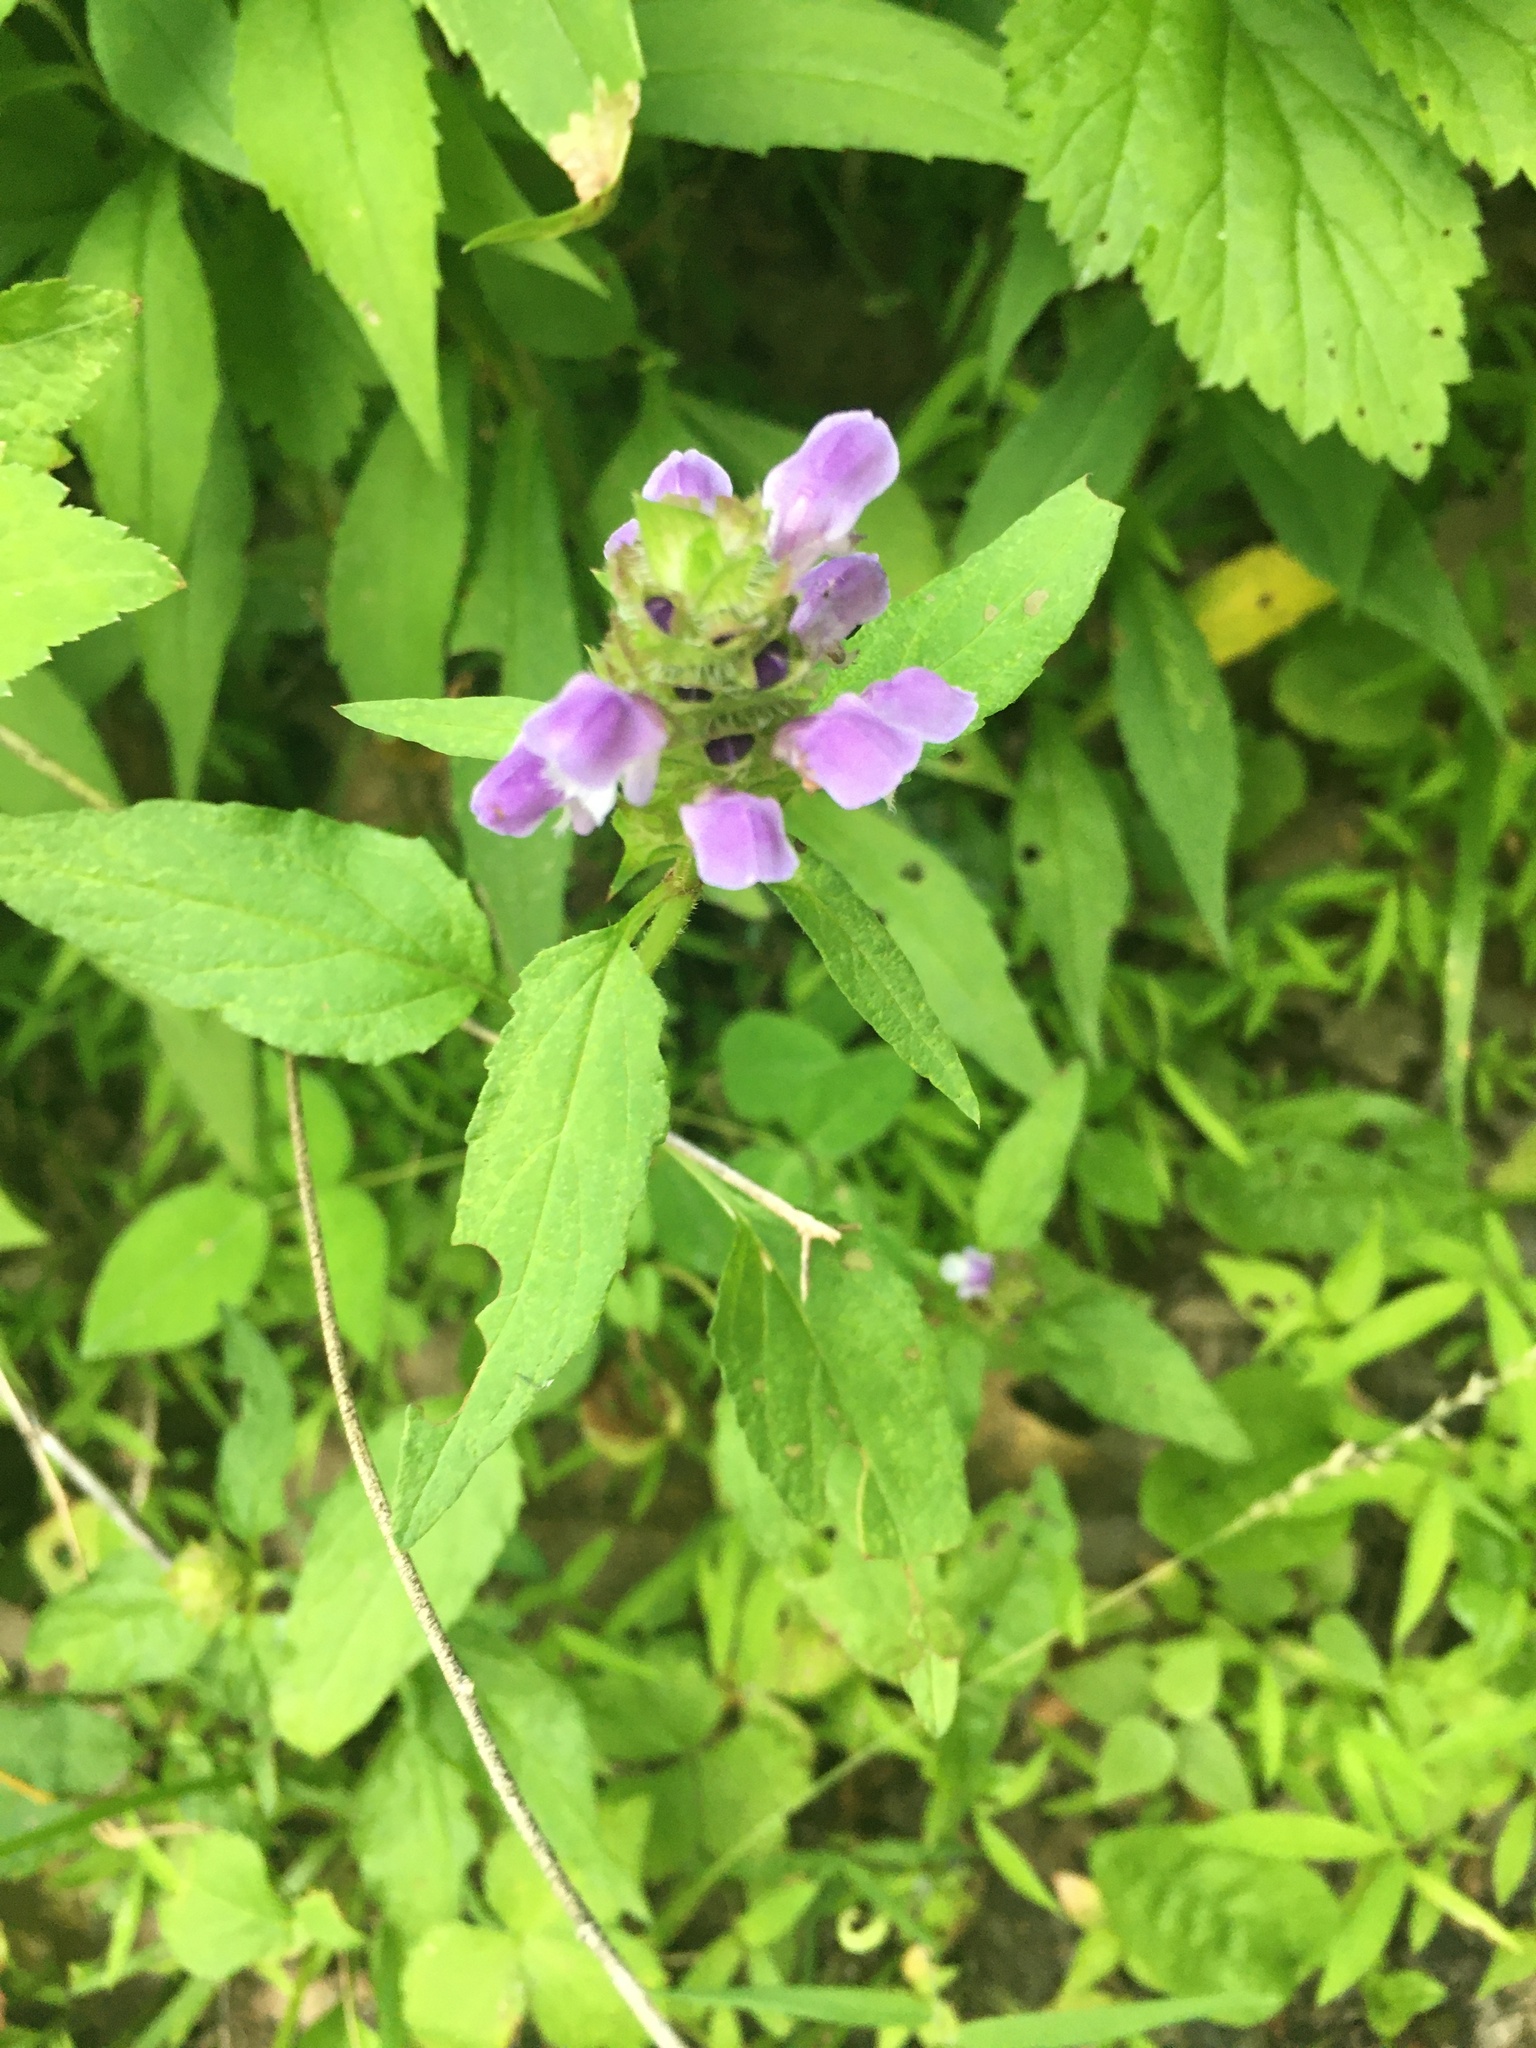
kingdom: Plantae
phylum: Tracheophyta
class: Magnoliopsida
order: Lamiales
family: Lamiaceae
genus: Prunella
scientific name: Prunella vulgaris
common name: Heal-all
